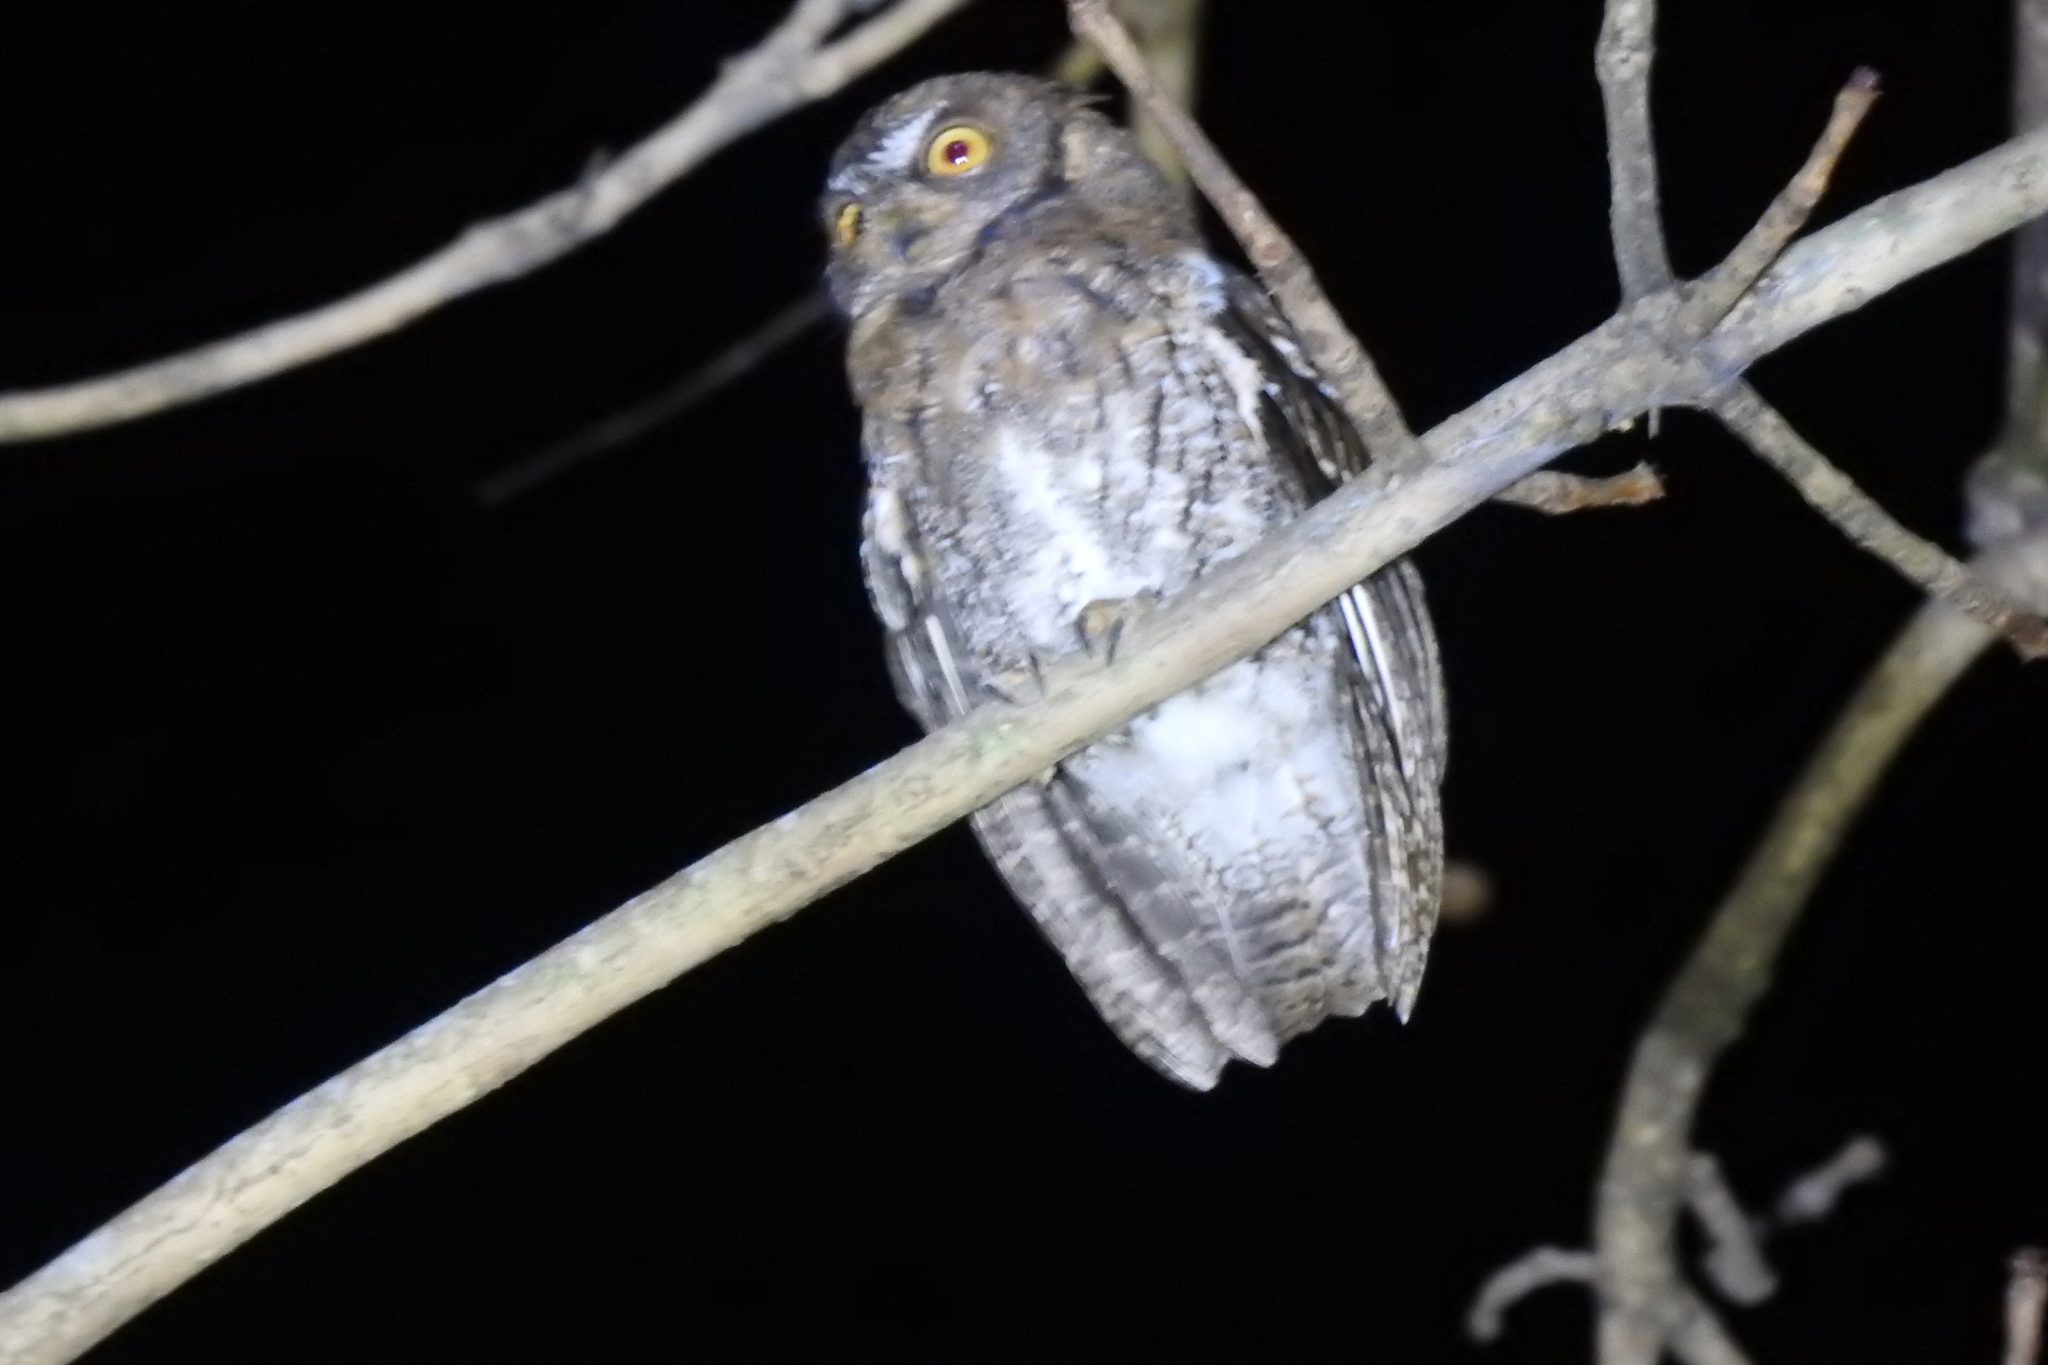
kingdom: Animalia
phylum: Chordata
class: Aves
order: Strigiformes
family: Strigidae
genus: Otus
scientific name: Otus jolandae
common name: Rinjani scops owl
